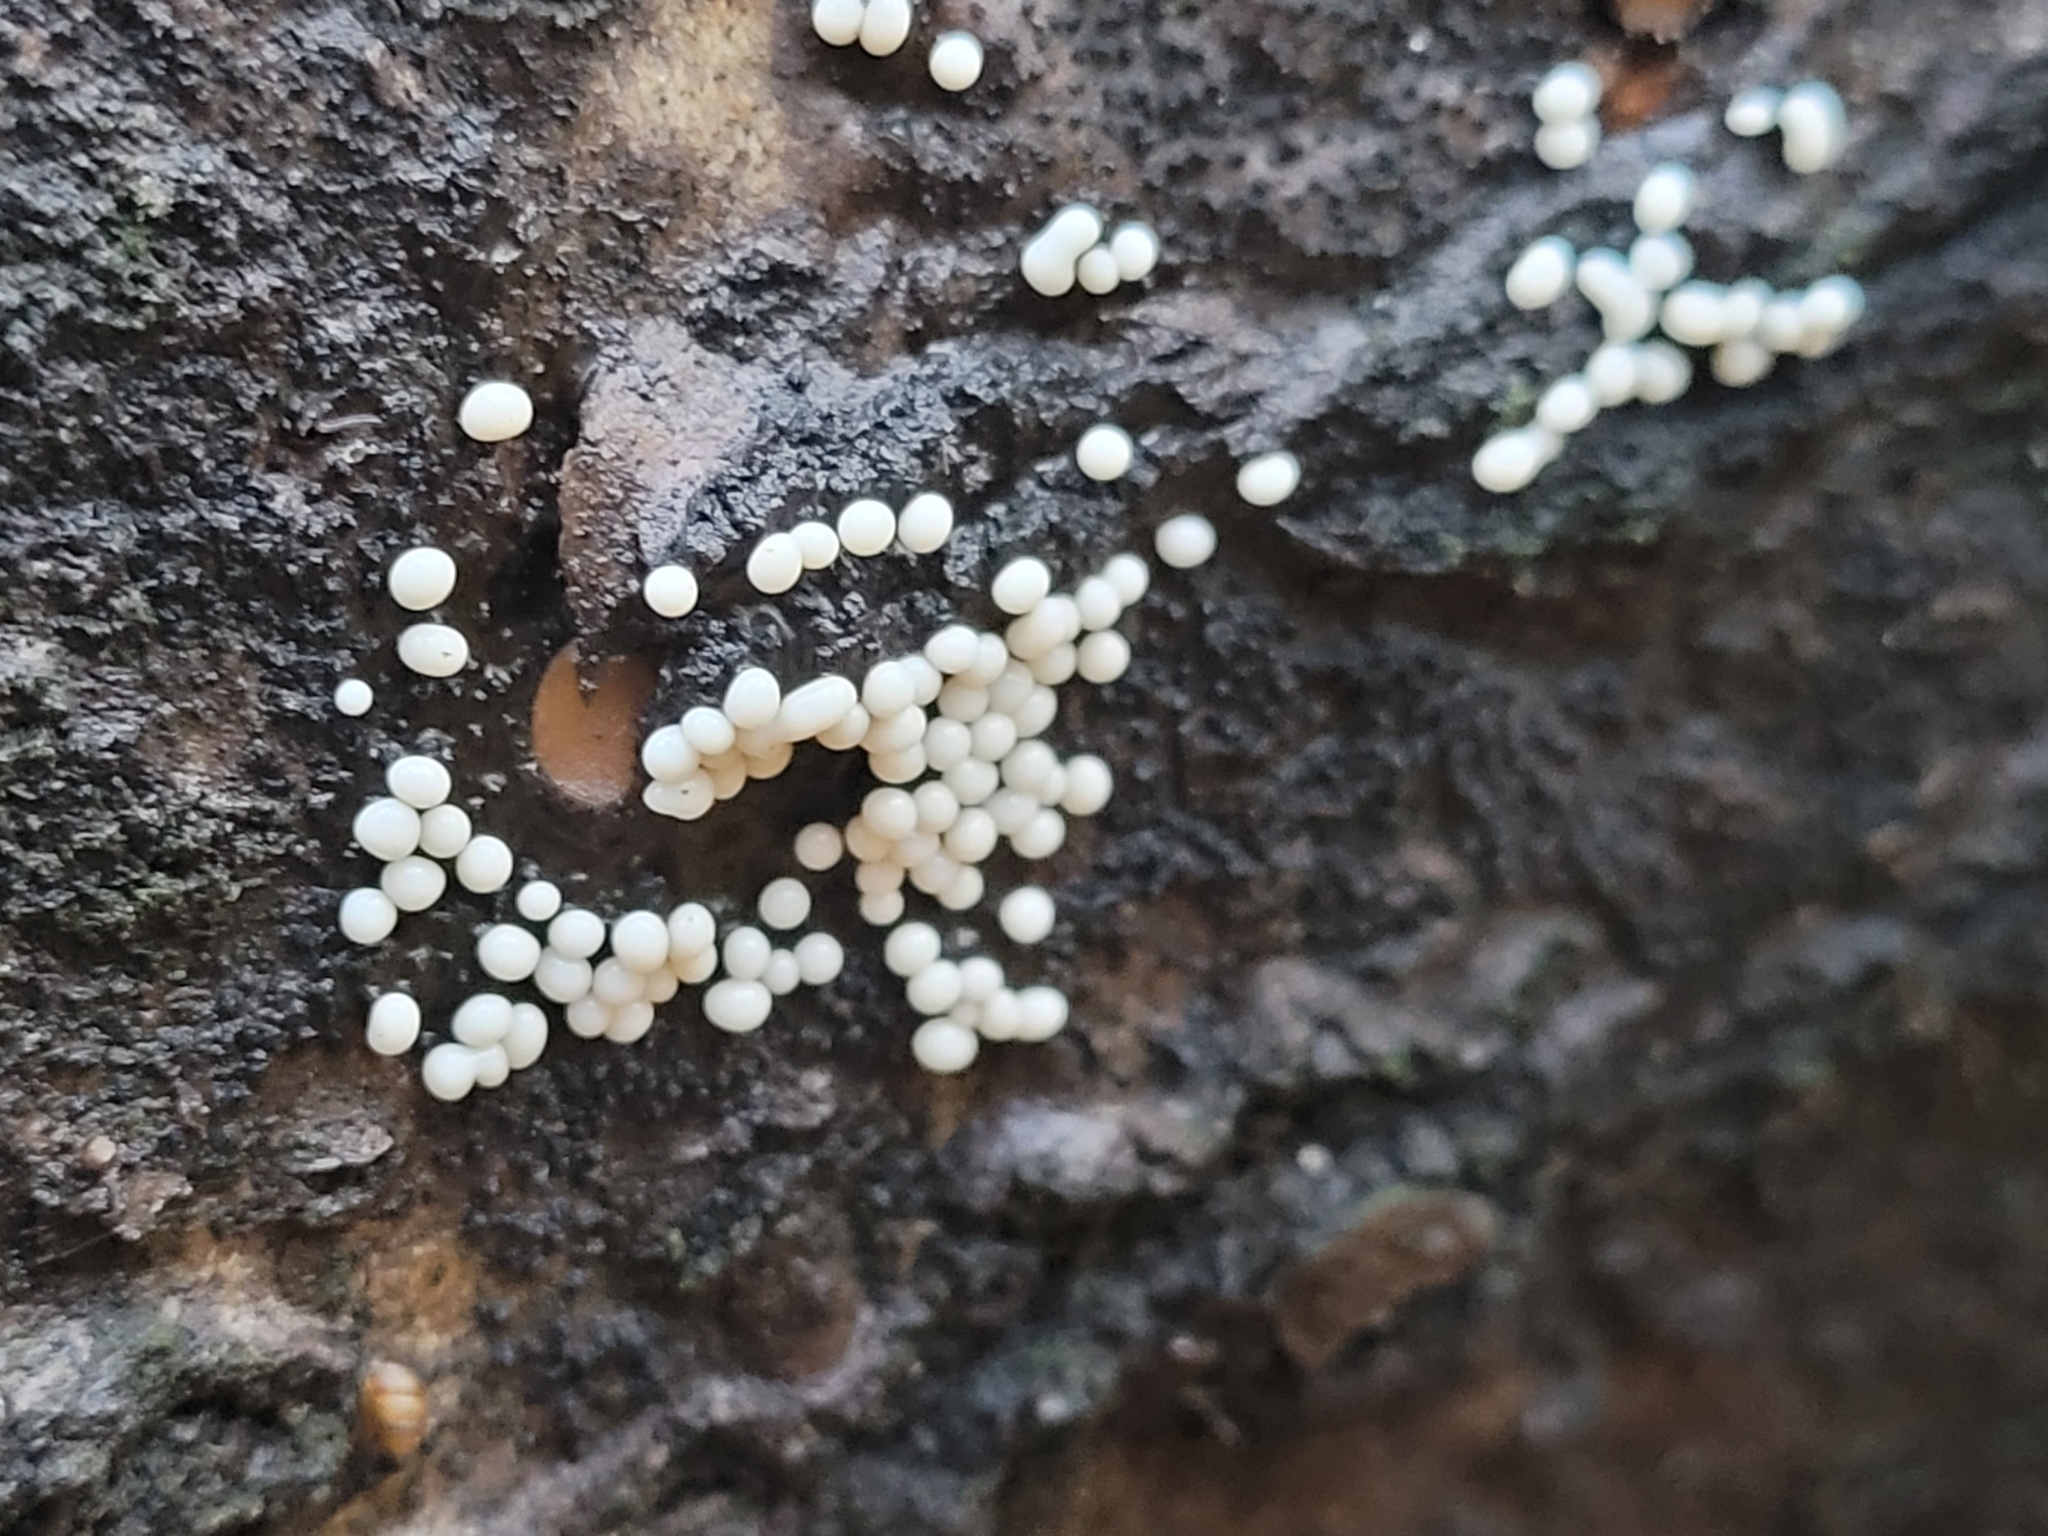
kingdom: Protozoa
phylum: Mycetozoa
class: Myxomycetes
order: Trichiales
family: Trichiaceae
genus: Trichia
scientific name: Trichia varia
